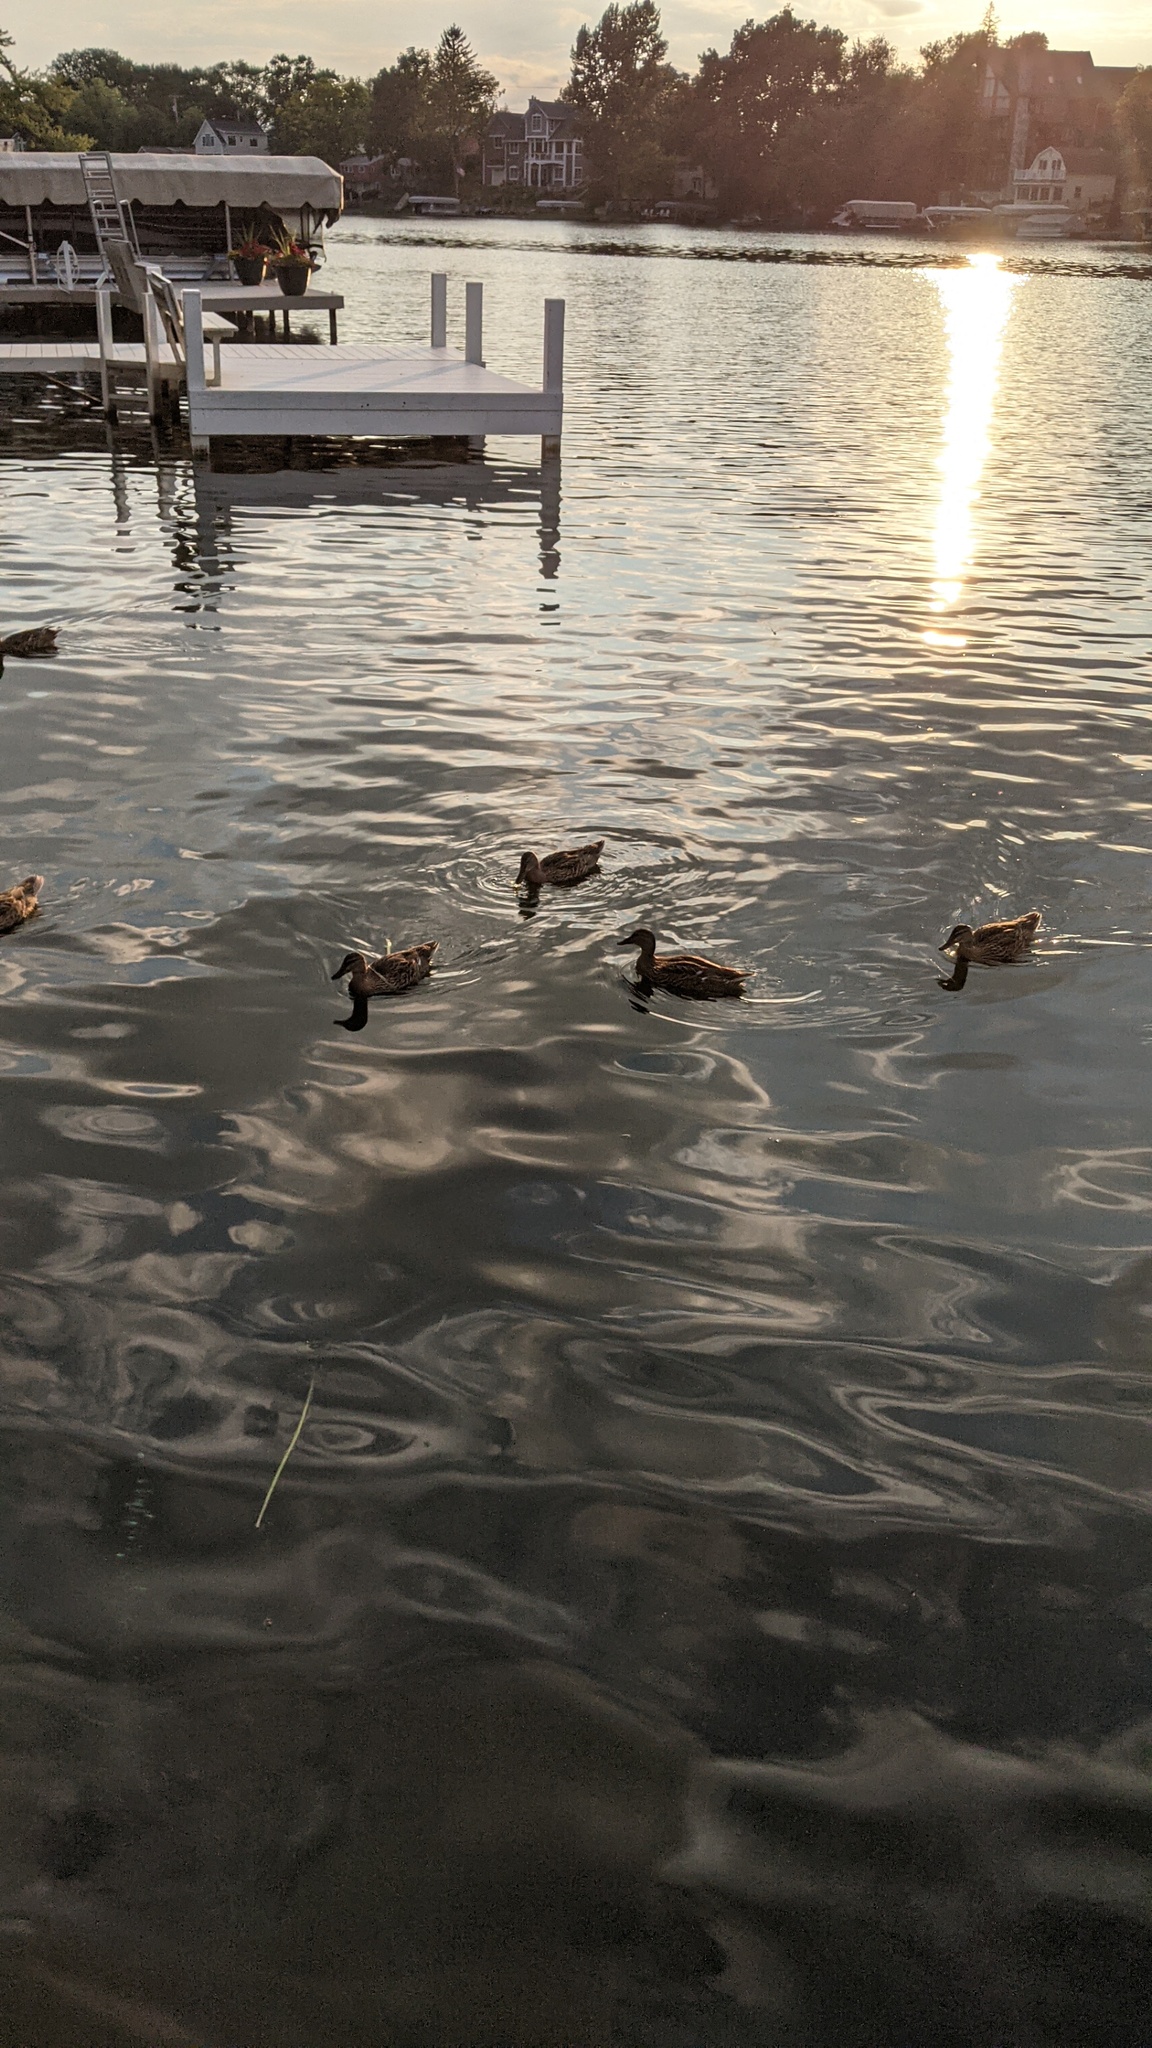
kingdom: Animalia
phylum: Chordata
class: Aves
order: Anseriformes
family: Anatidae
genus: Anas
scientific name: Anas platyrhynchos
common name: Mallard
